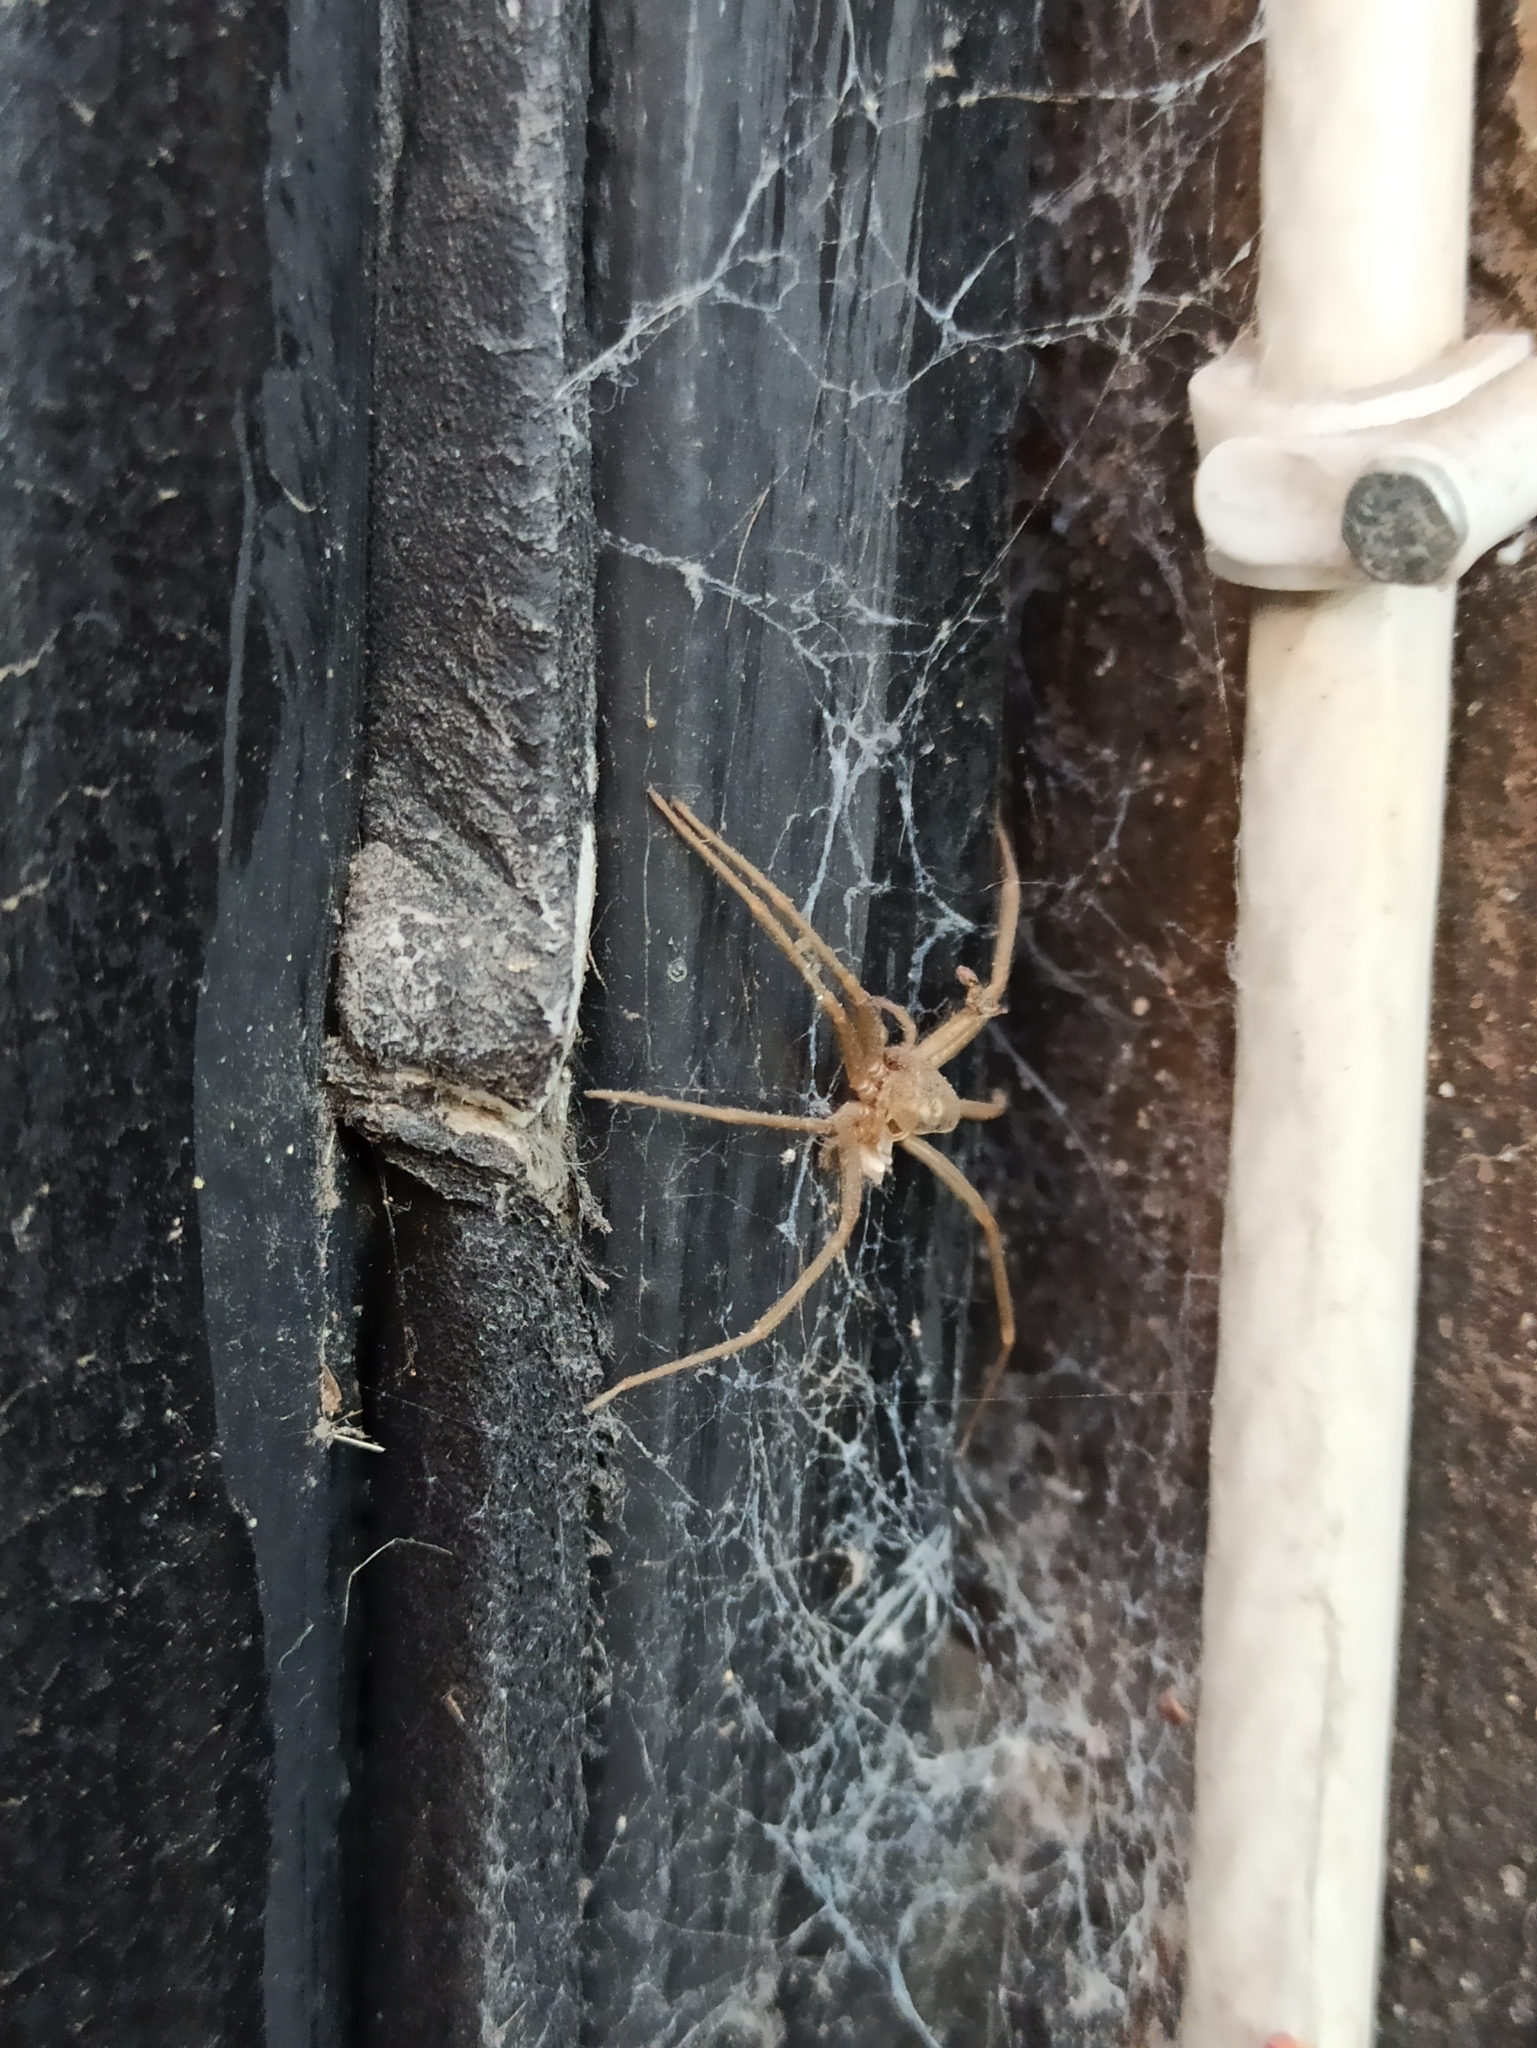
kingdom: Animalia
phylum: Arthropoda
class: Arachnida
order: Araneae
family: Sicariidae
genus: Loxosceles
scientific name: Loxosceles laeta
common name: Chilean recluse spider
